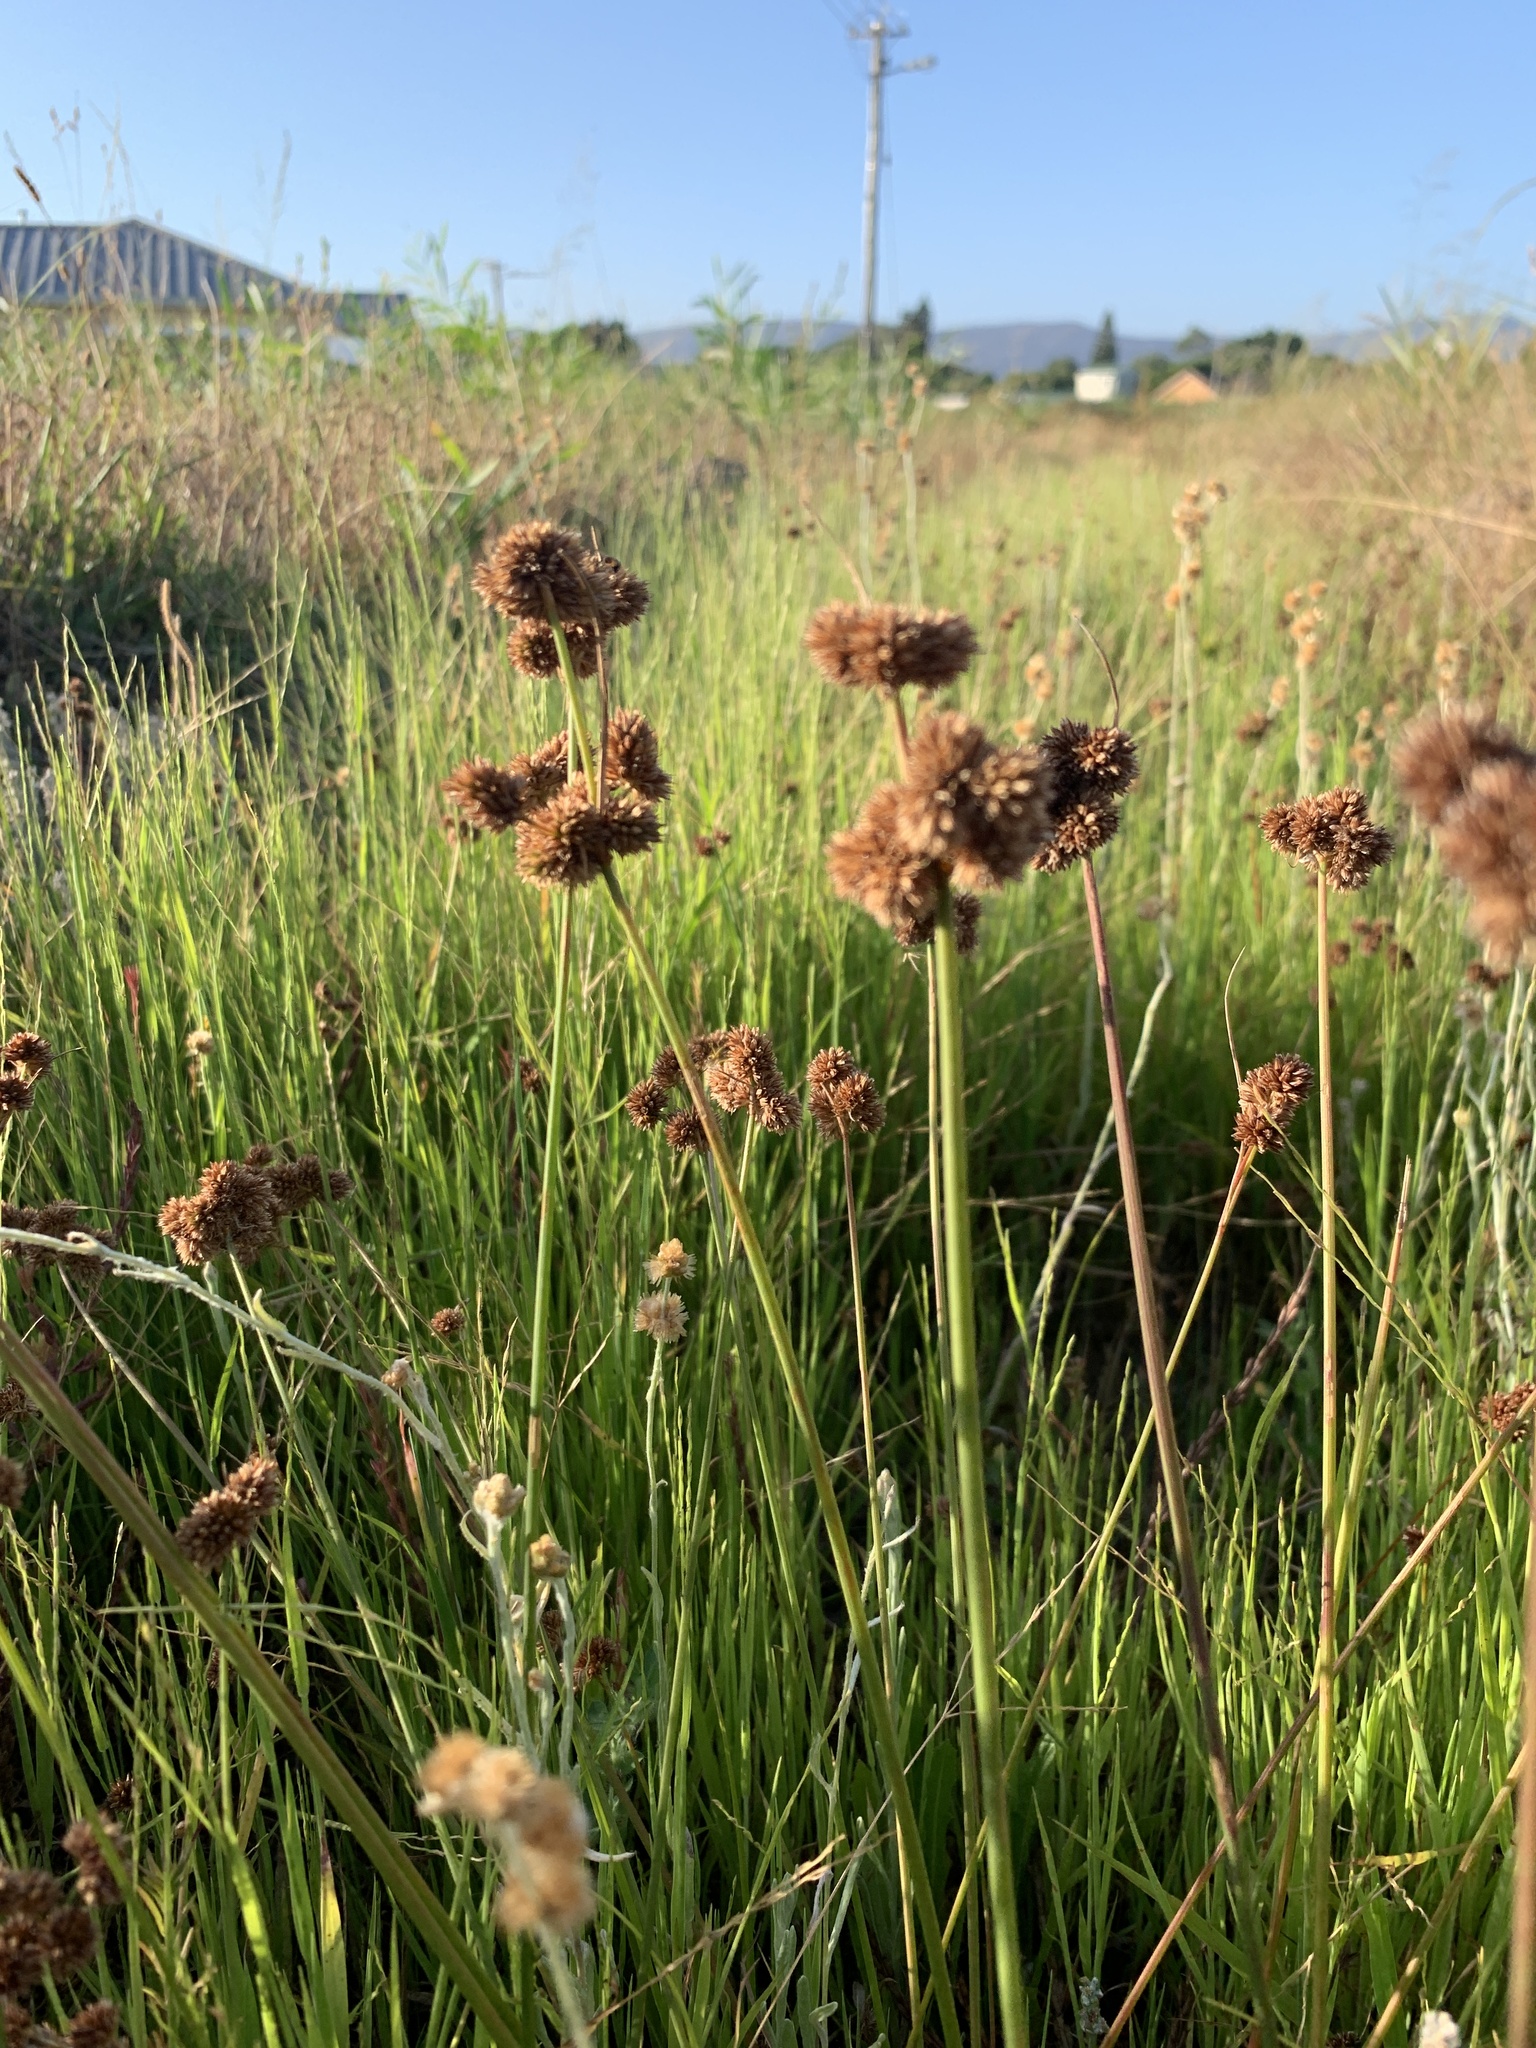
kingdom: Plantae
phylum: Tracheophyta
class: Liliopsida
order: Poales
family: Juncaceae
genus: Juncus
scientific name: Juncus oxycarpus
